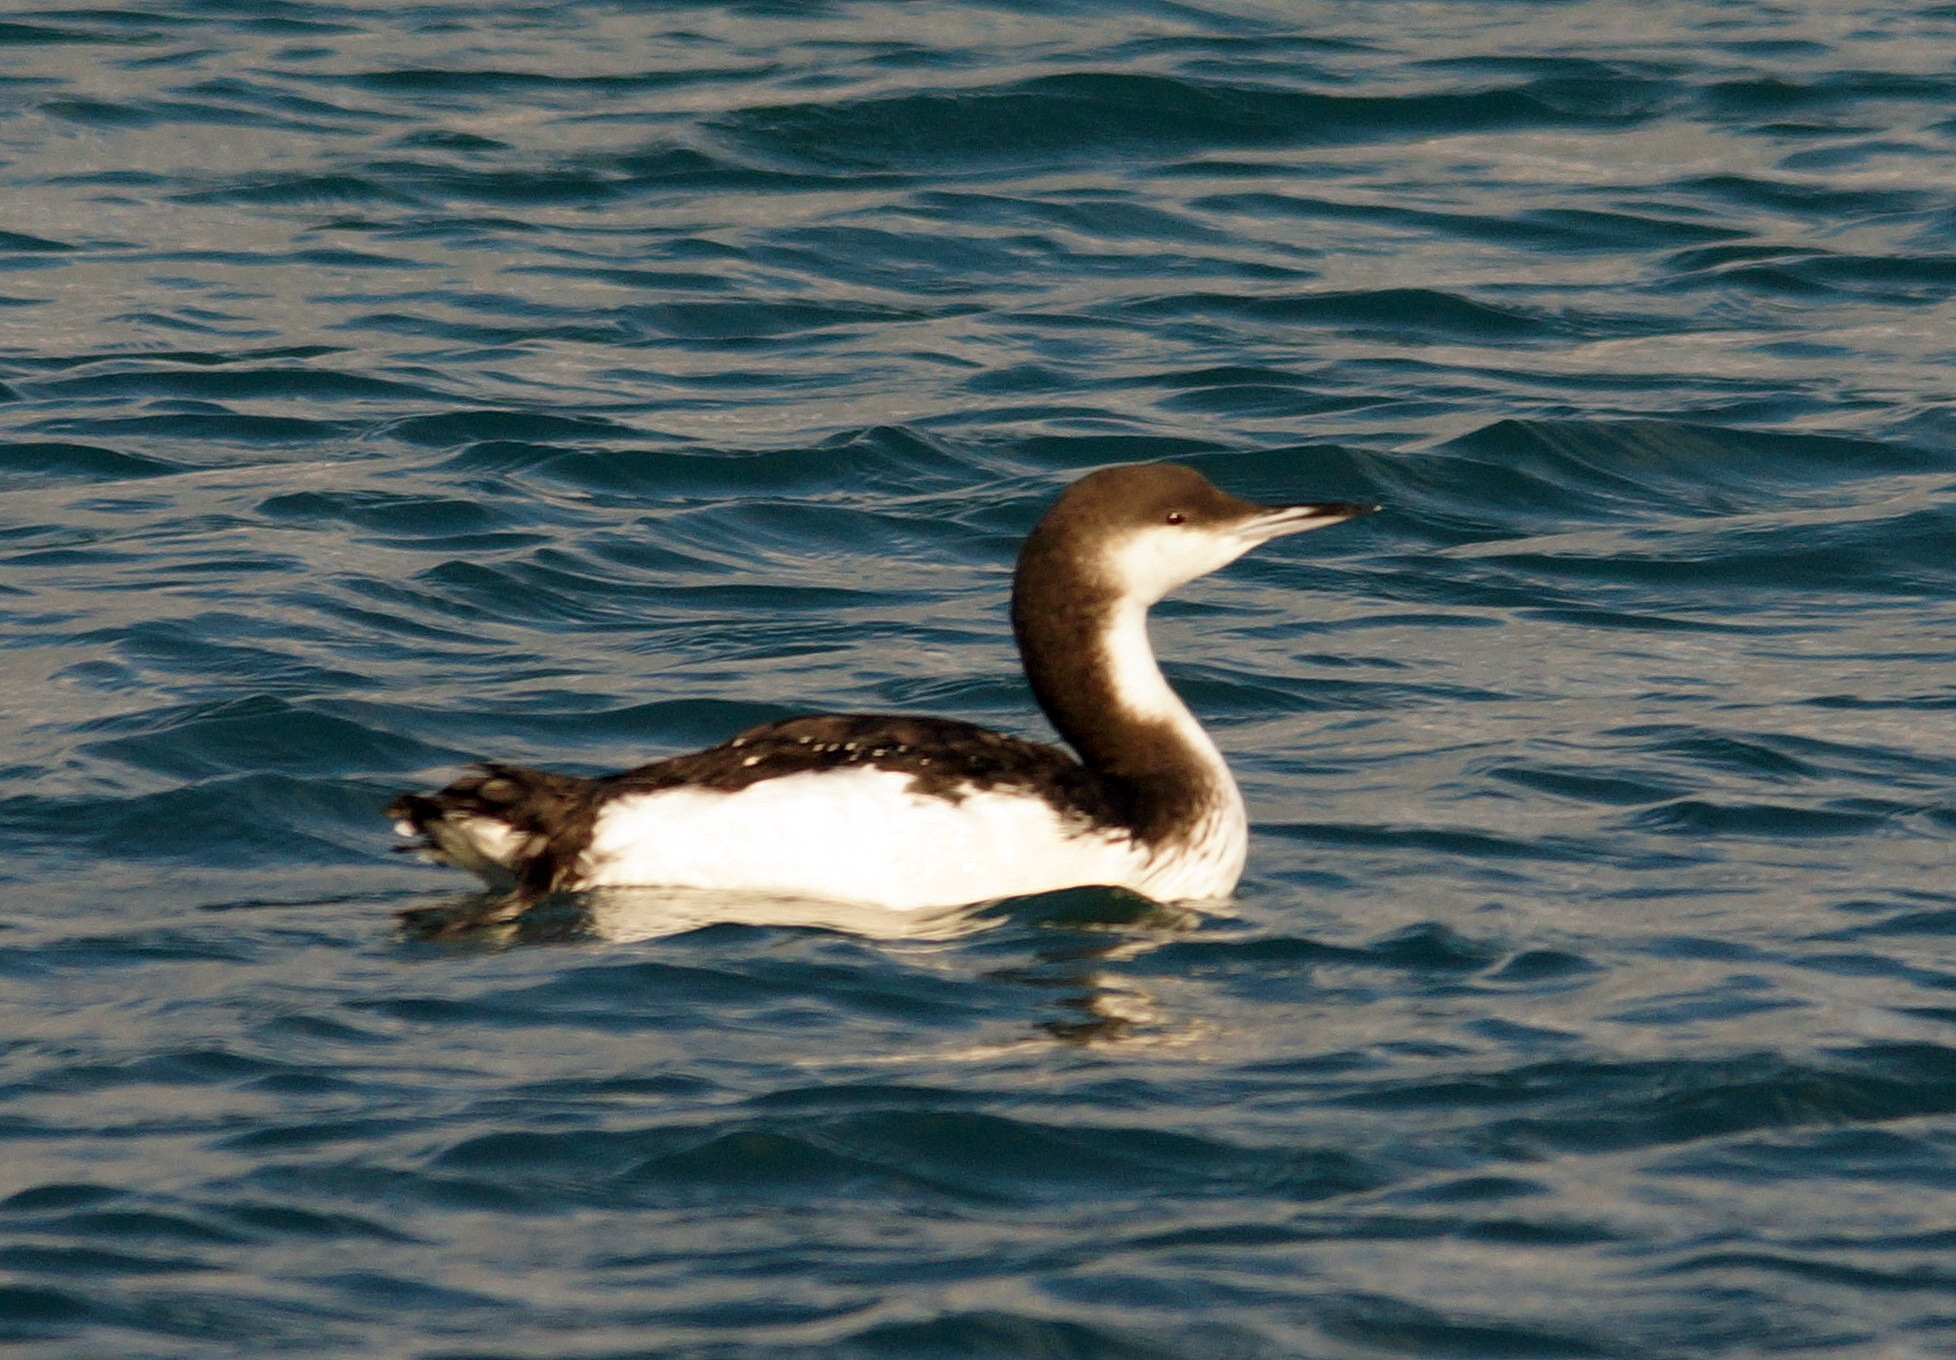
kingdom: Animalia
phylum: Chordata
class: Aves
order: Gaviiformes
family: Gaviidae
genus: Gavia
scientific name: Gavia arctica
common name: Black-throated loon
